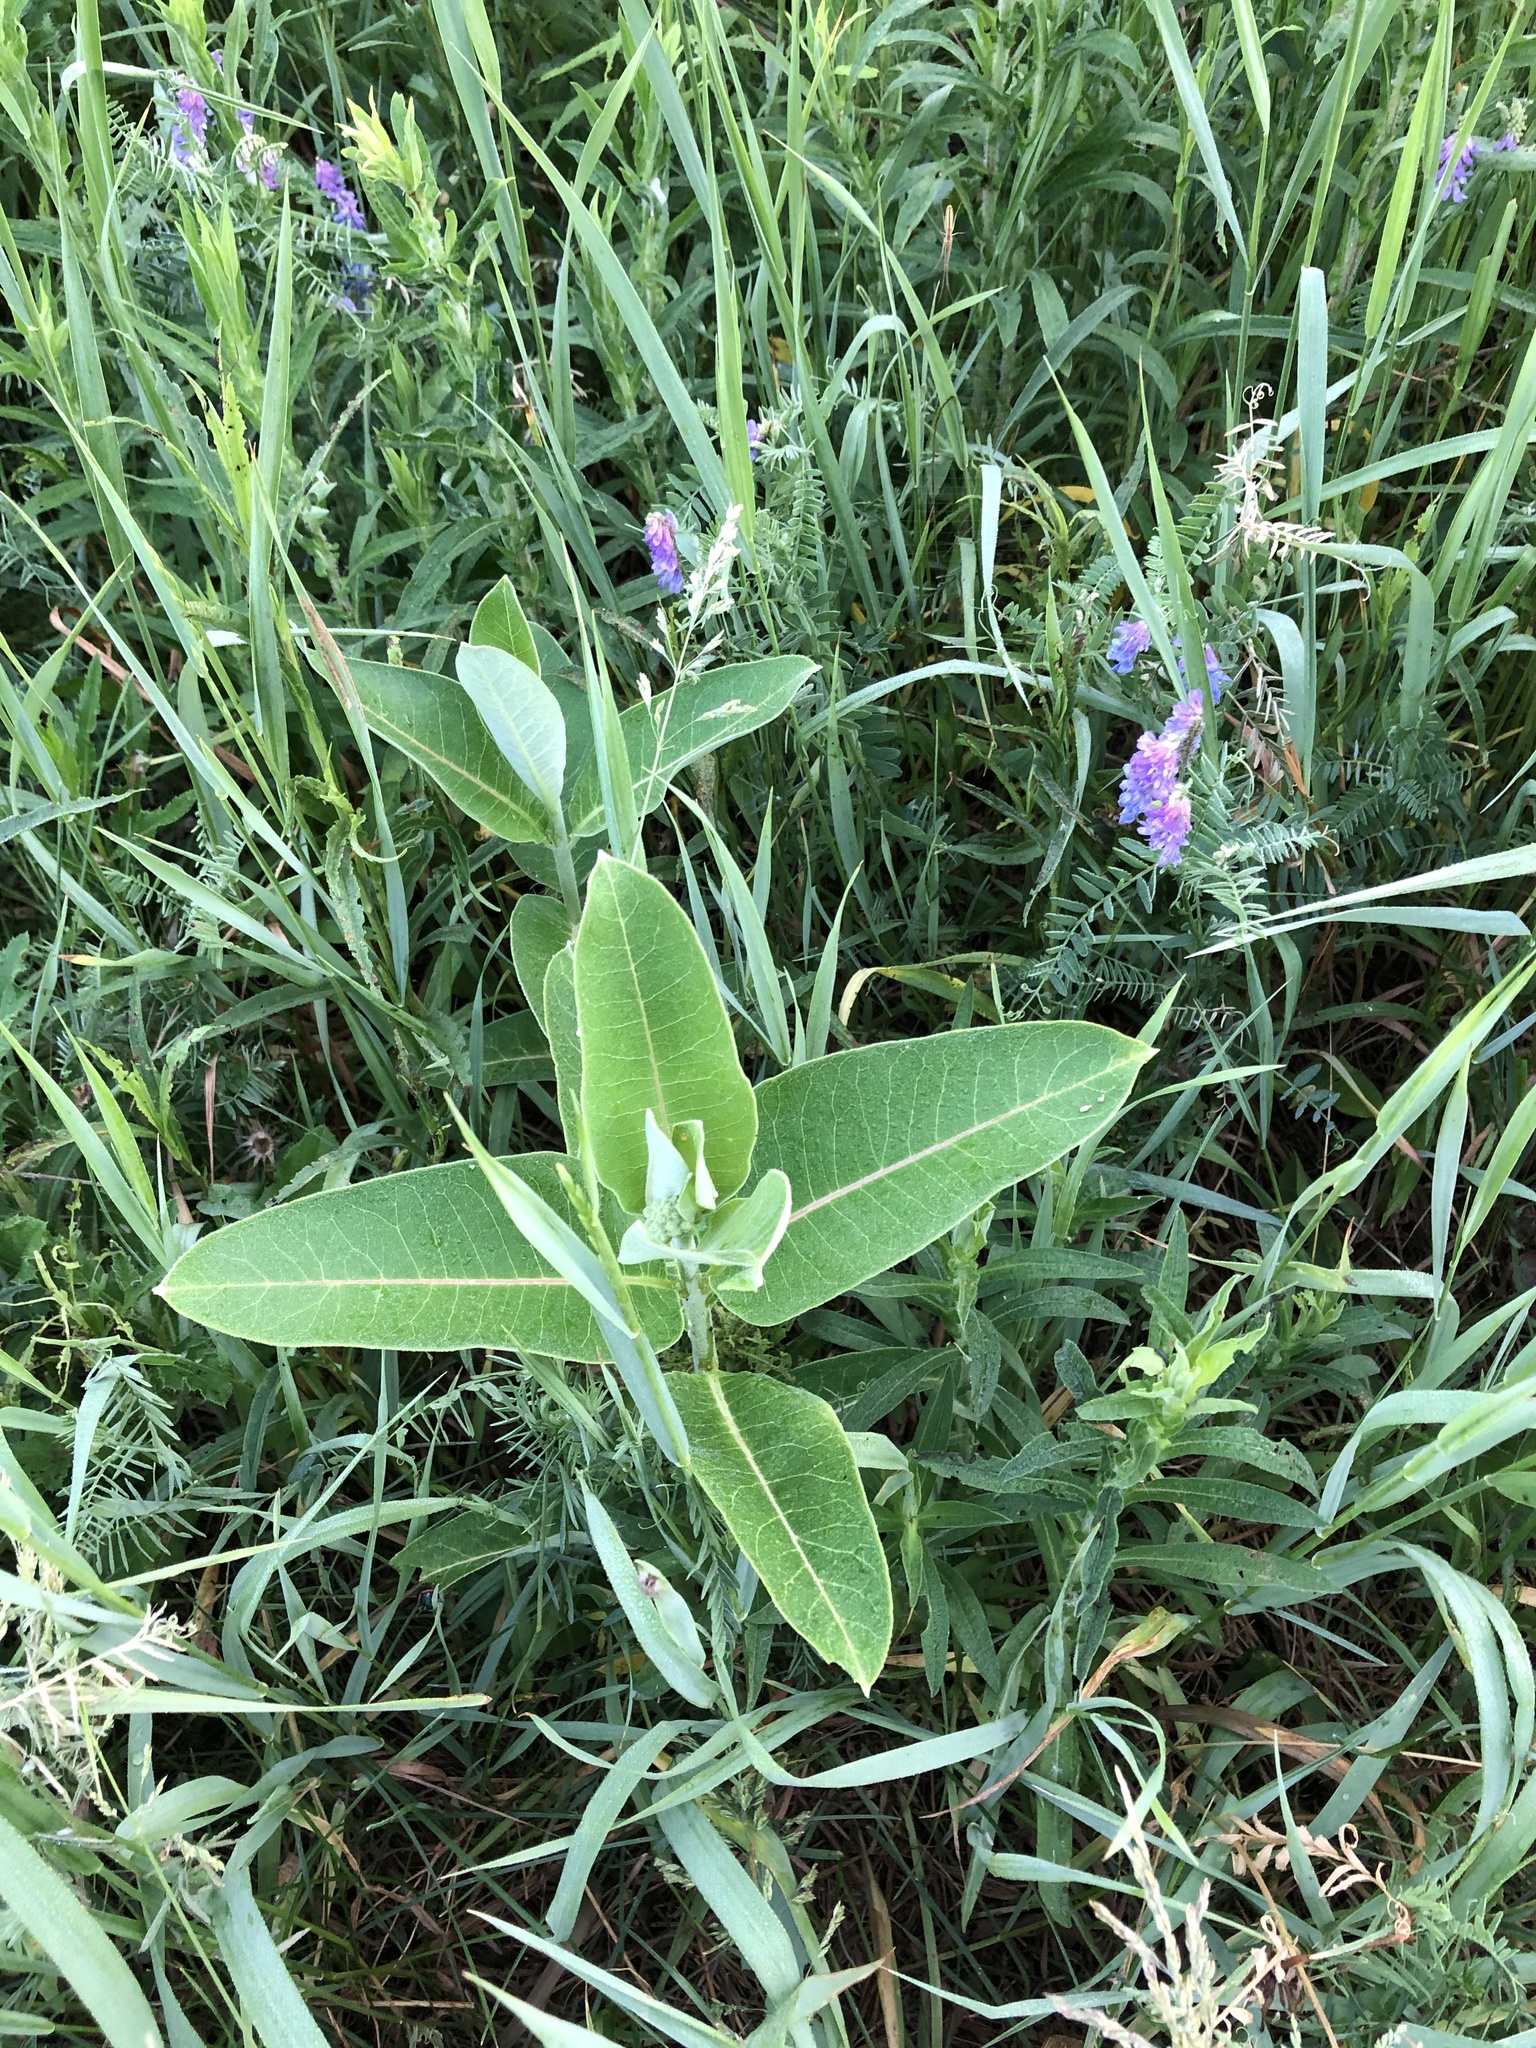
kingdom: Plantae
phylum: Tracheophyta
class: Magnoliopsida
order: Gentianales
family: Apocynaceae
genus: Asclepias
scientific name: Asclepias syriaca
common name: Common milkweed
